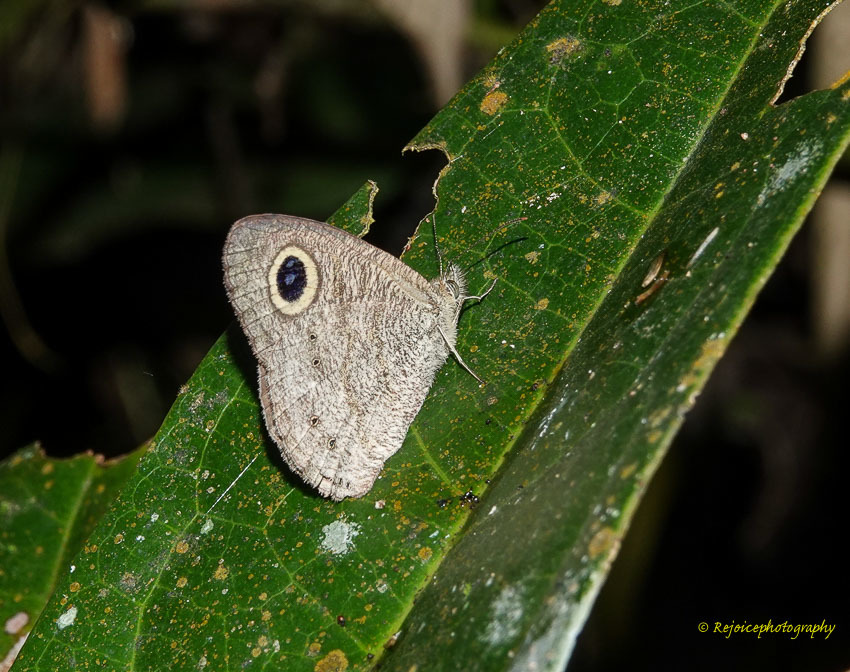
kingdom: Animalia
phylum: Arthropoda
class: Insecta
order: Lepidoptera
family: Nymphalidae
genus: Ypthima
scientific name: Ypthima
